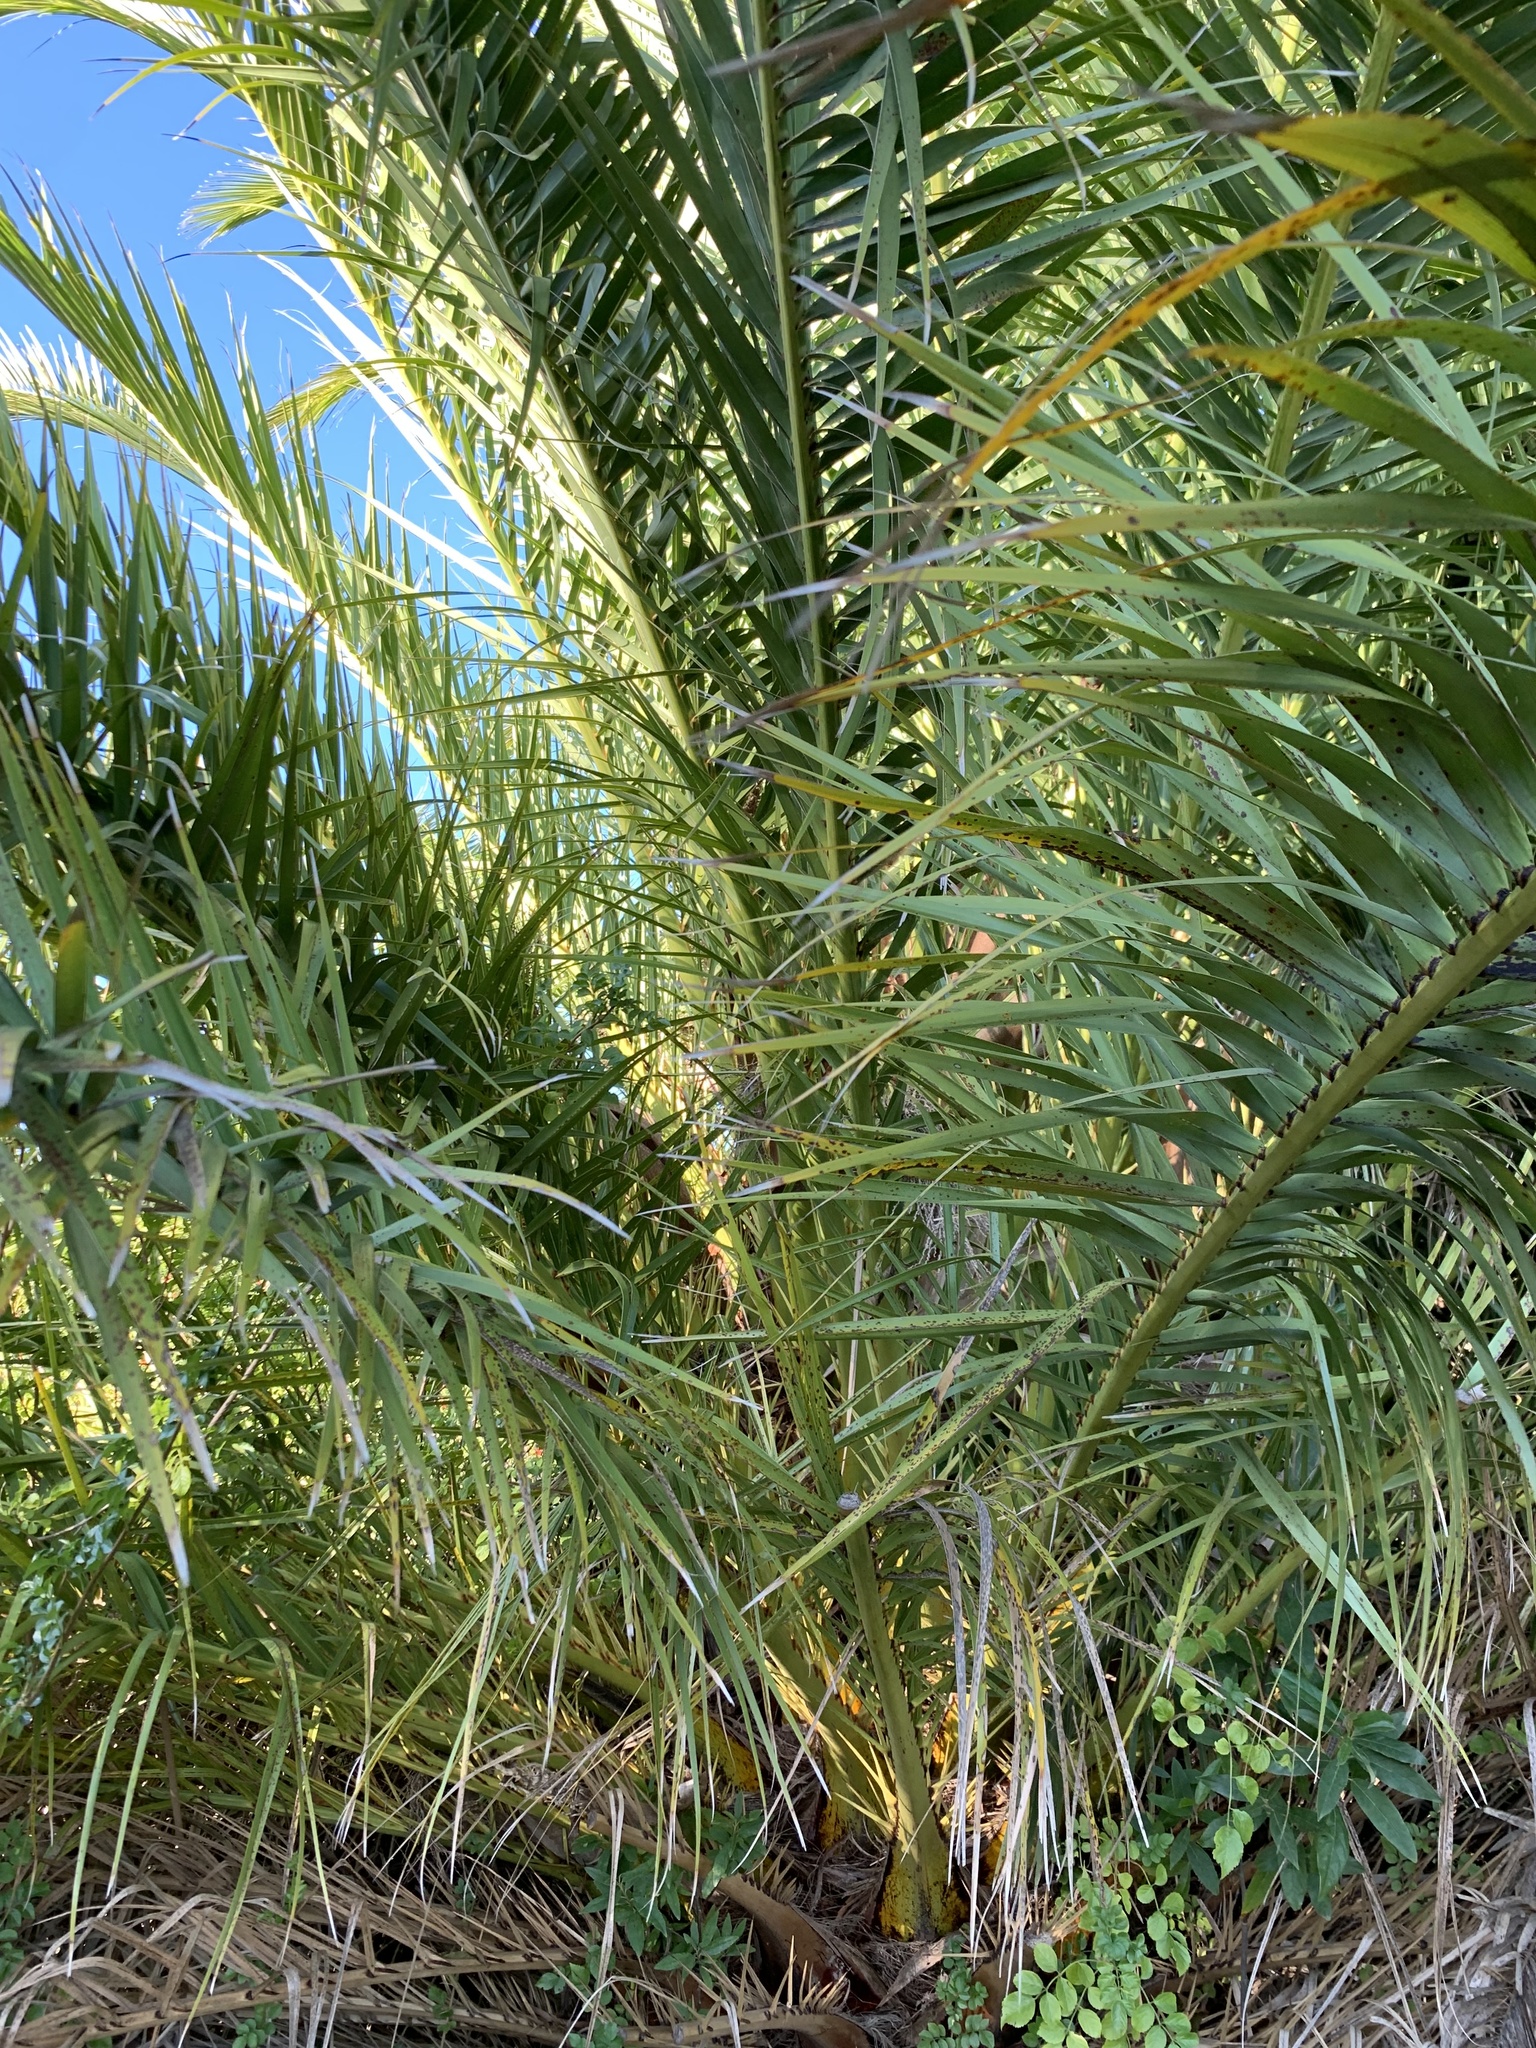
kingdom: Plantae
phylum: Tracheophyta
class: Liliopsida
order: Arecales
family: Arecaceae
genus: Phoenix
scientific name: Phoenix canariensis
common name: Canary island date palm
